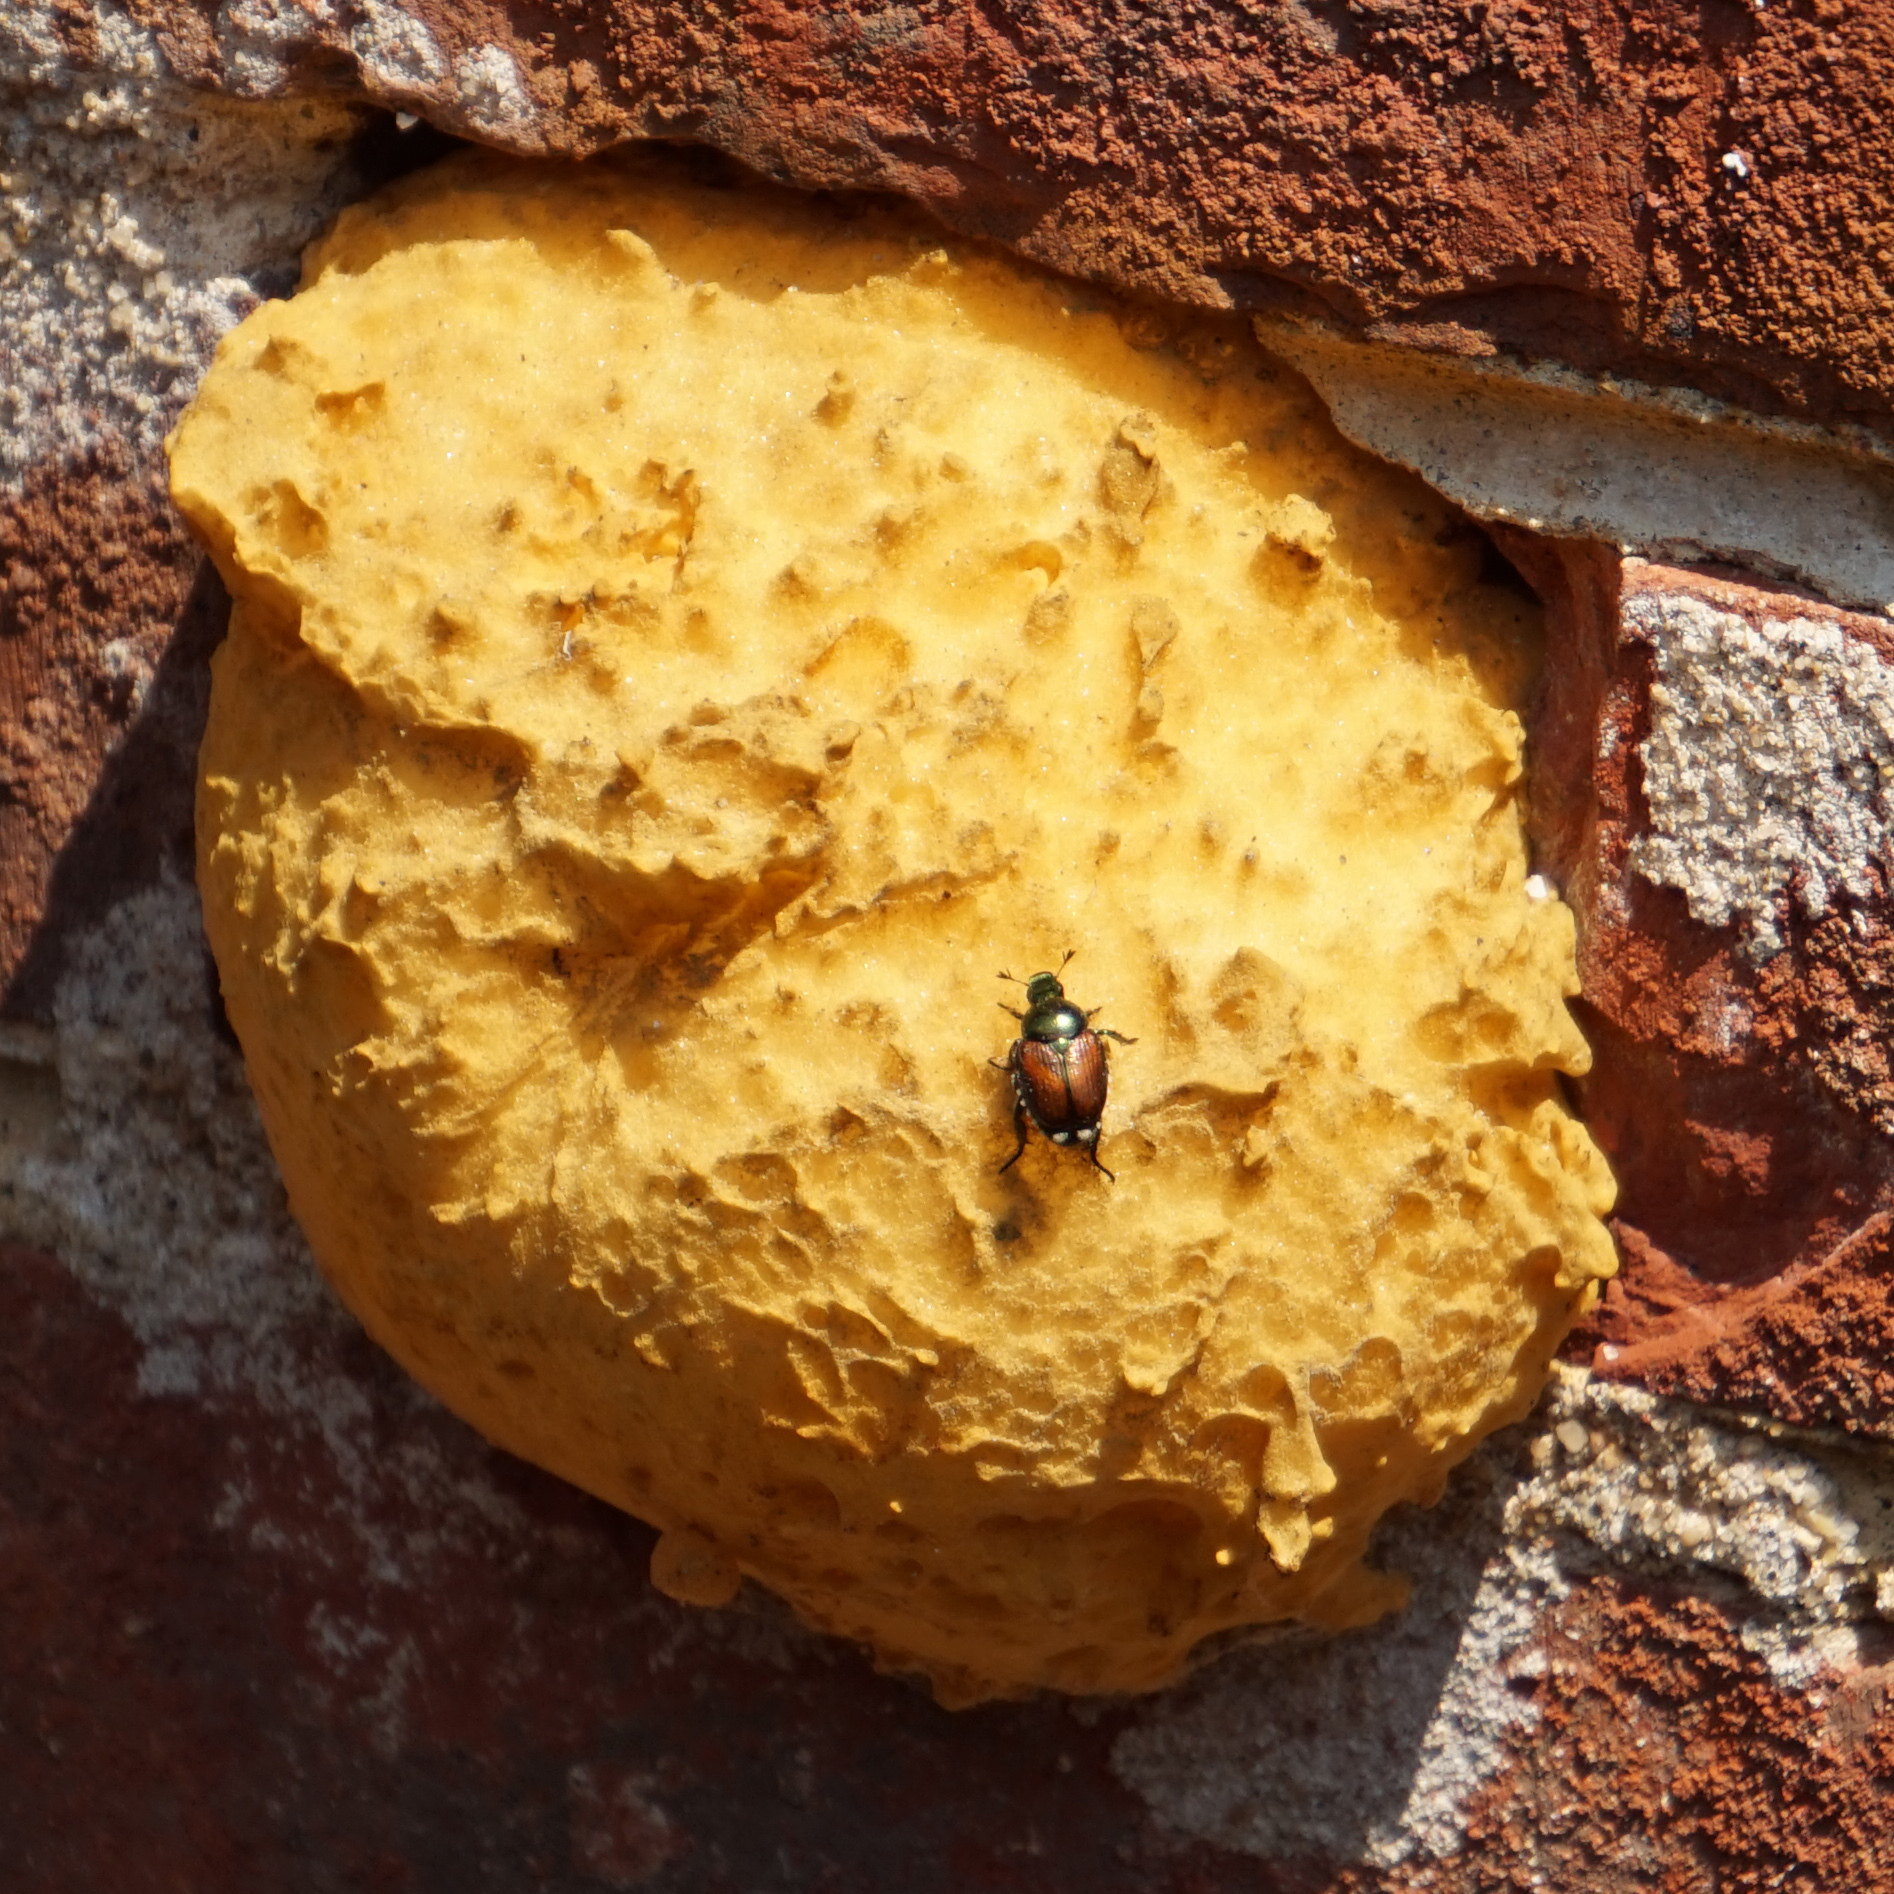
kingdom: Animalia
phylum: Arthropoda
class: Insecta
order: Coleoptera
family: Scarabaeidae
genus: Popillia
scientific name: Popillia japonica
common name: Japanese beetle
